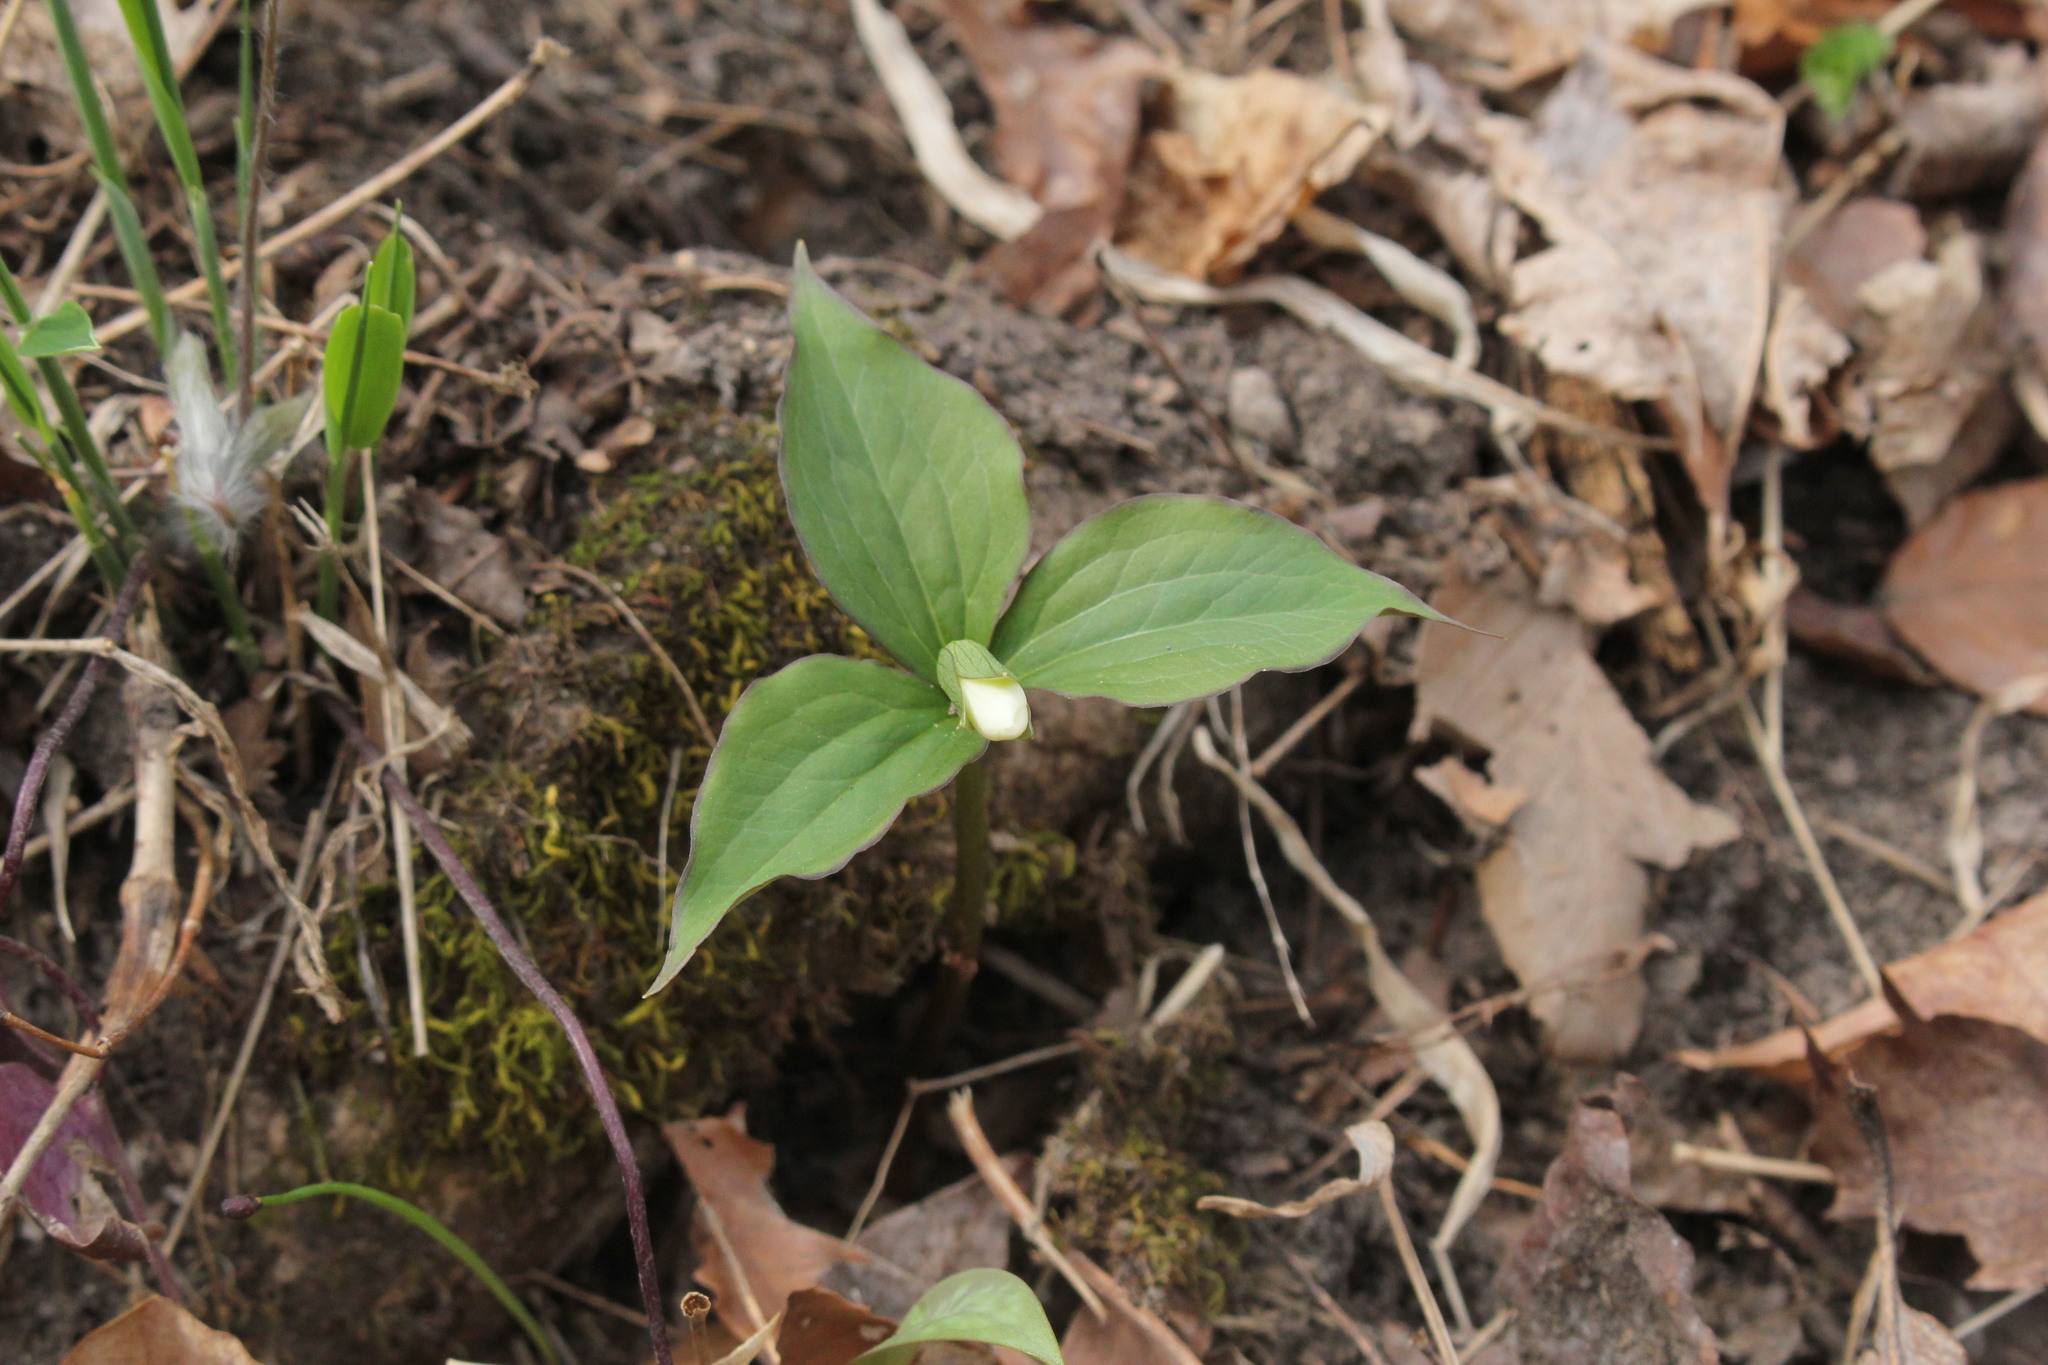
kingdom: Plantae
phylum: Tracheophyta
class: Liliopsida
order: Liliales
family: Melanthiaceae
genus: Trillium
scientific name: Trillium grandiflorum
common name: Great white trillium
